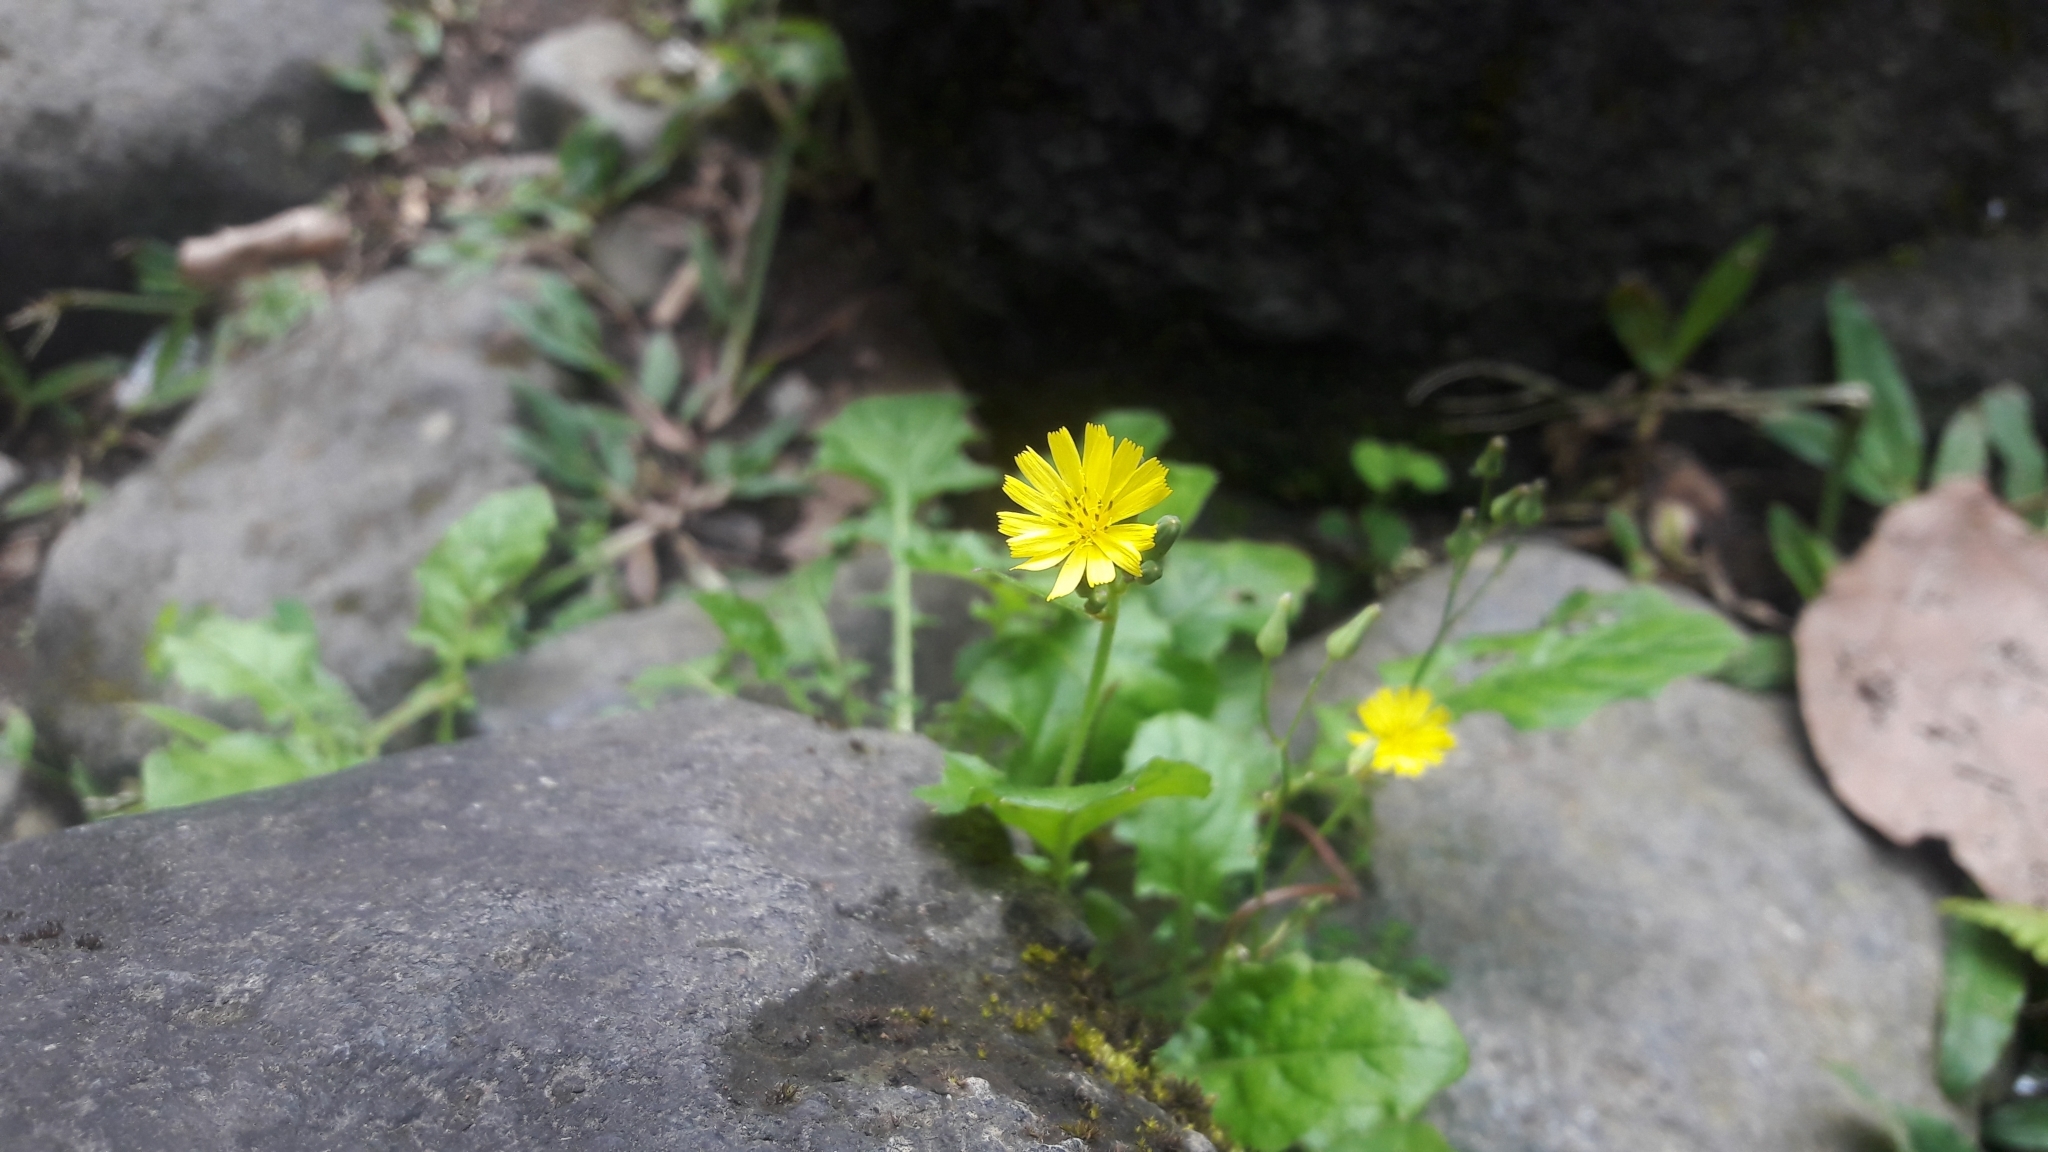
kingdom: Plantae
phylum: Tracheophyta
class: Magnoliopsida
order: Asterales
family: Asteraceae
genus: Youngia
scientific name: Youngia japonica
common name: Oriental false hawksbeard
